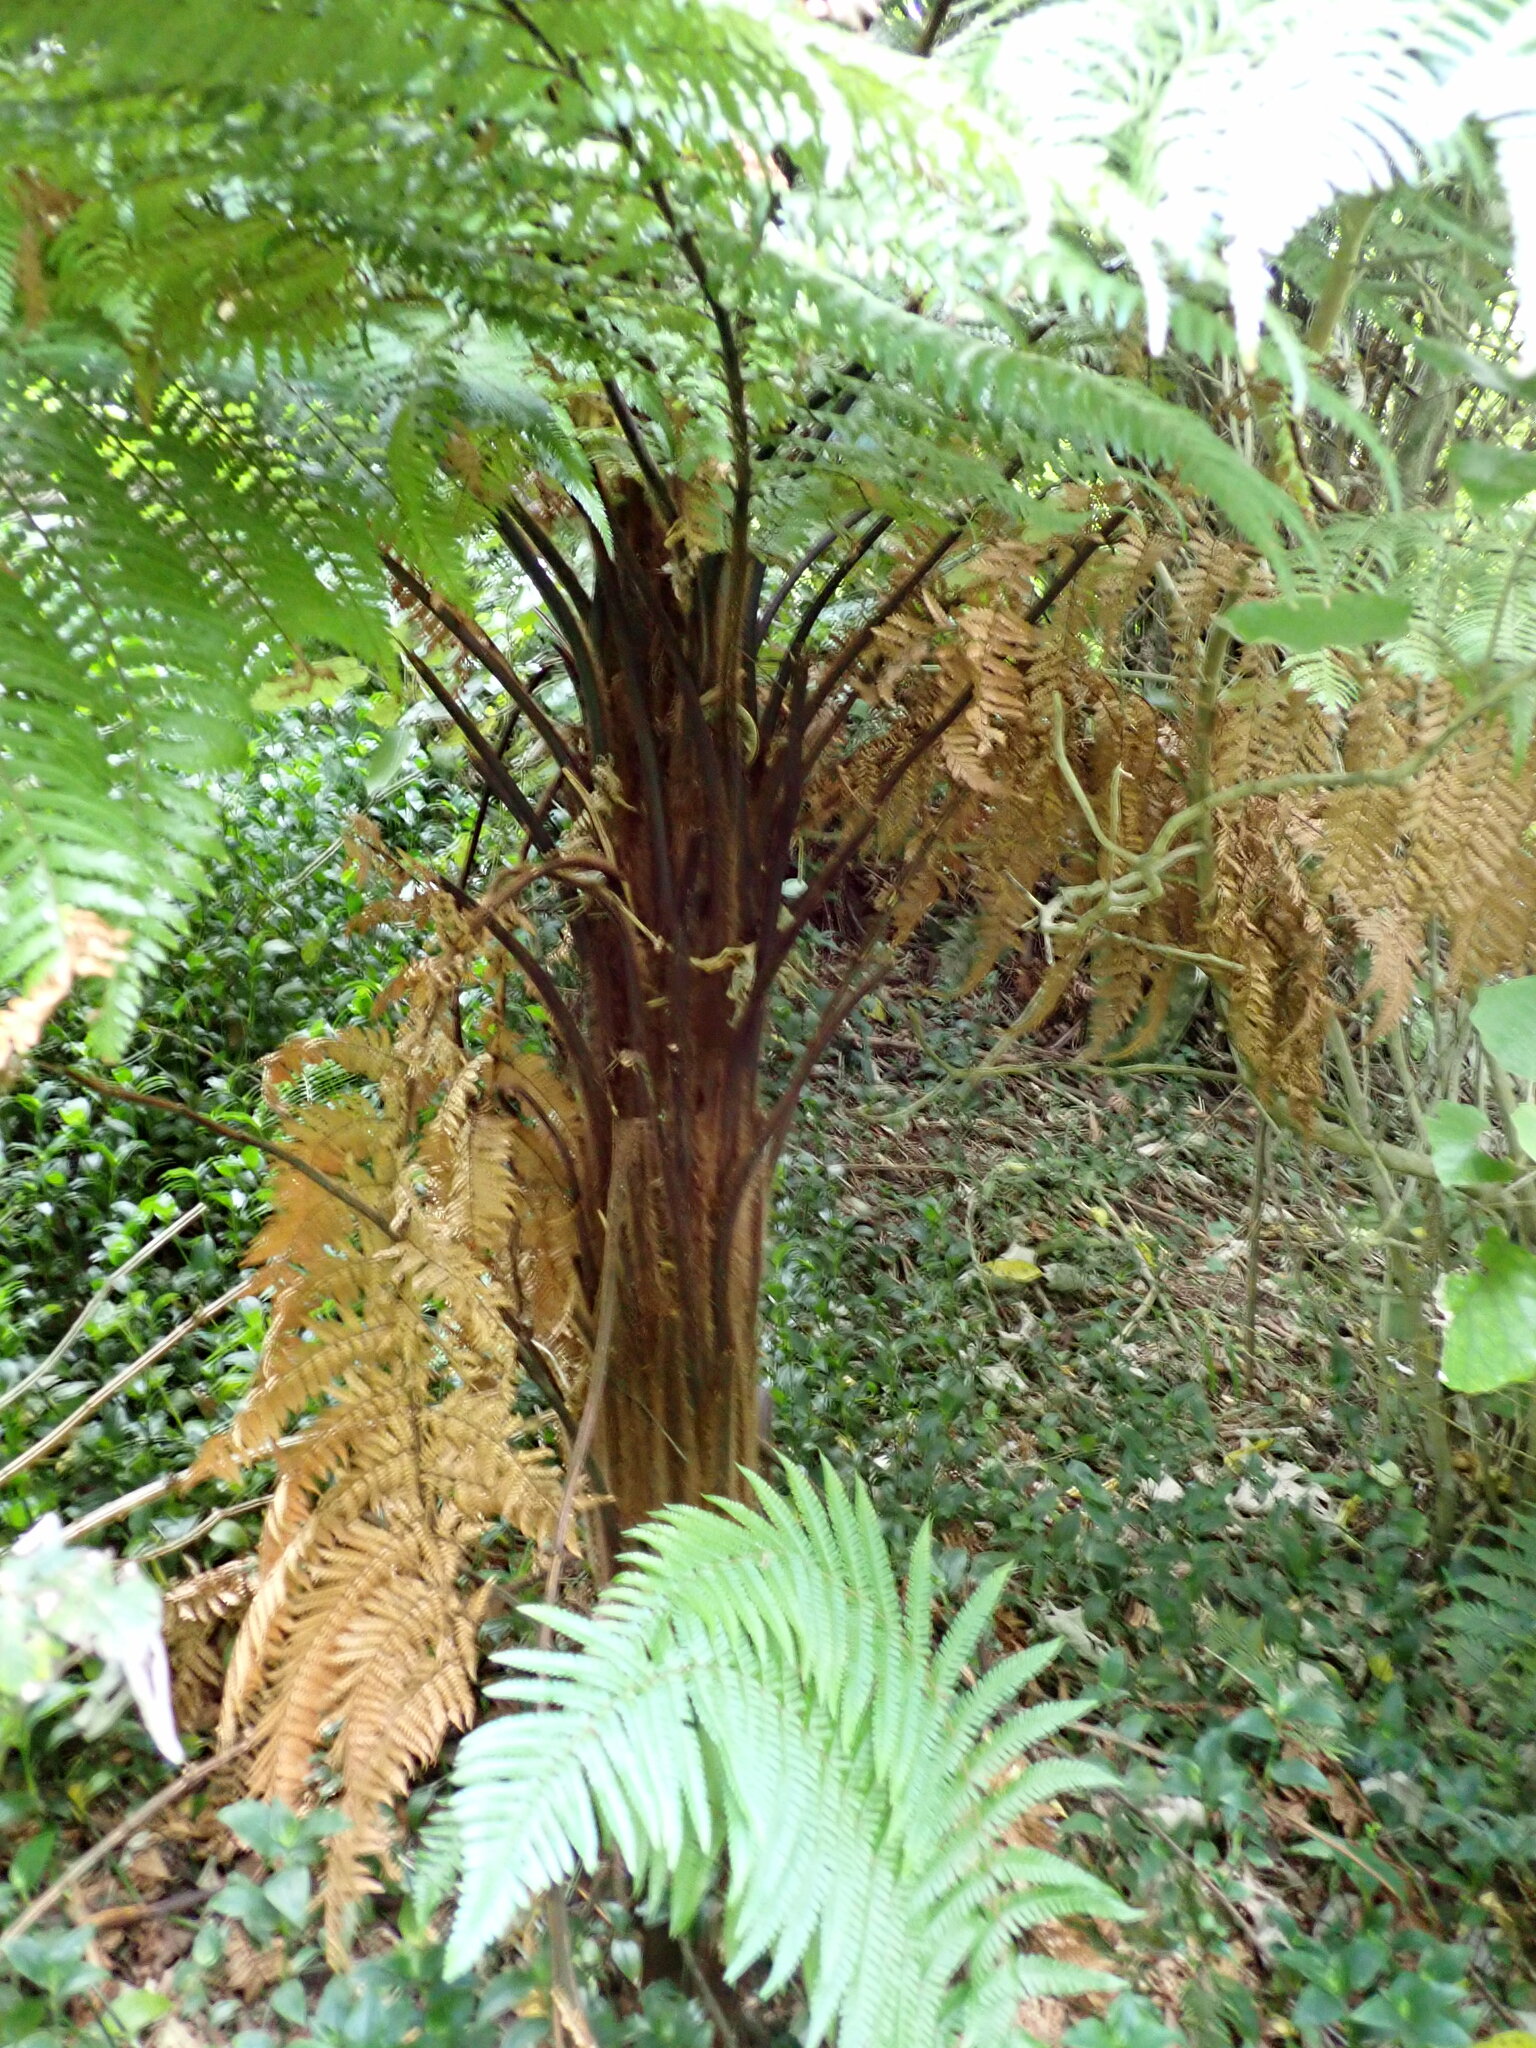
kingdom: Plantae
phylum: Tracheophyta
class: Polypodiopsida
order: Cyatheales
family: Dicksoniaceae
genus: Dicksonia
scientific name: Dicksonia squarrosa
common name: Hard treefern
